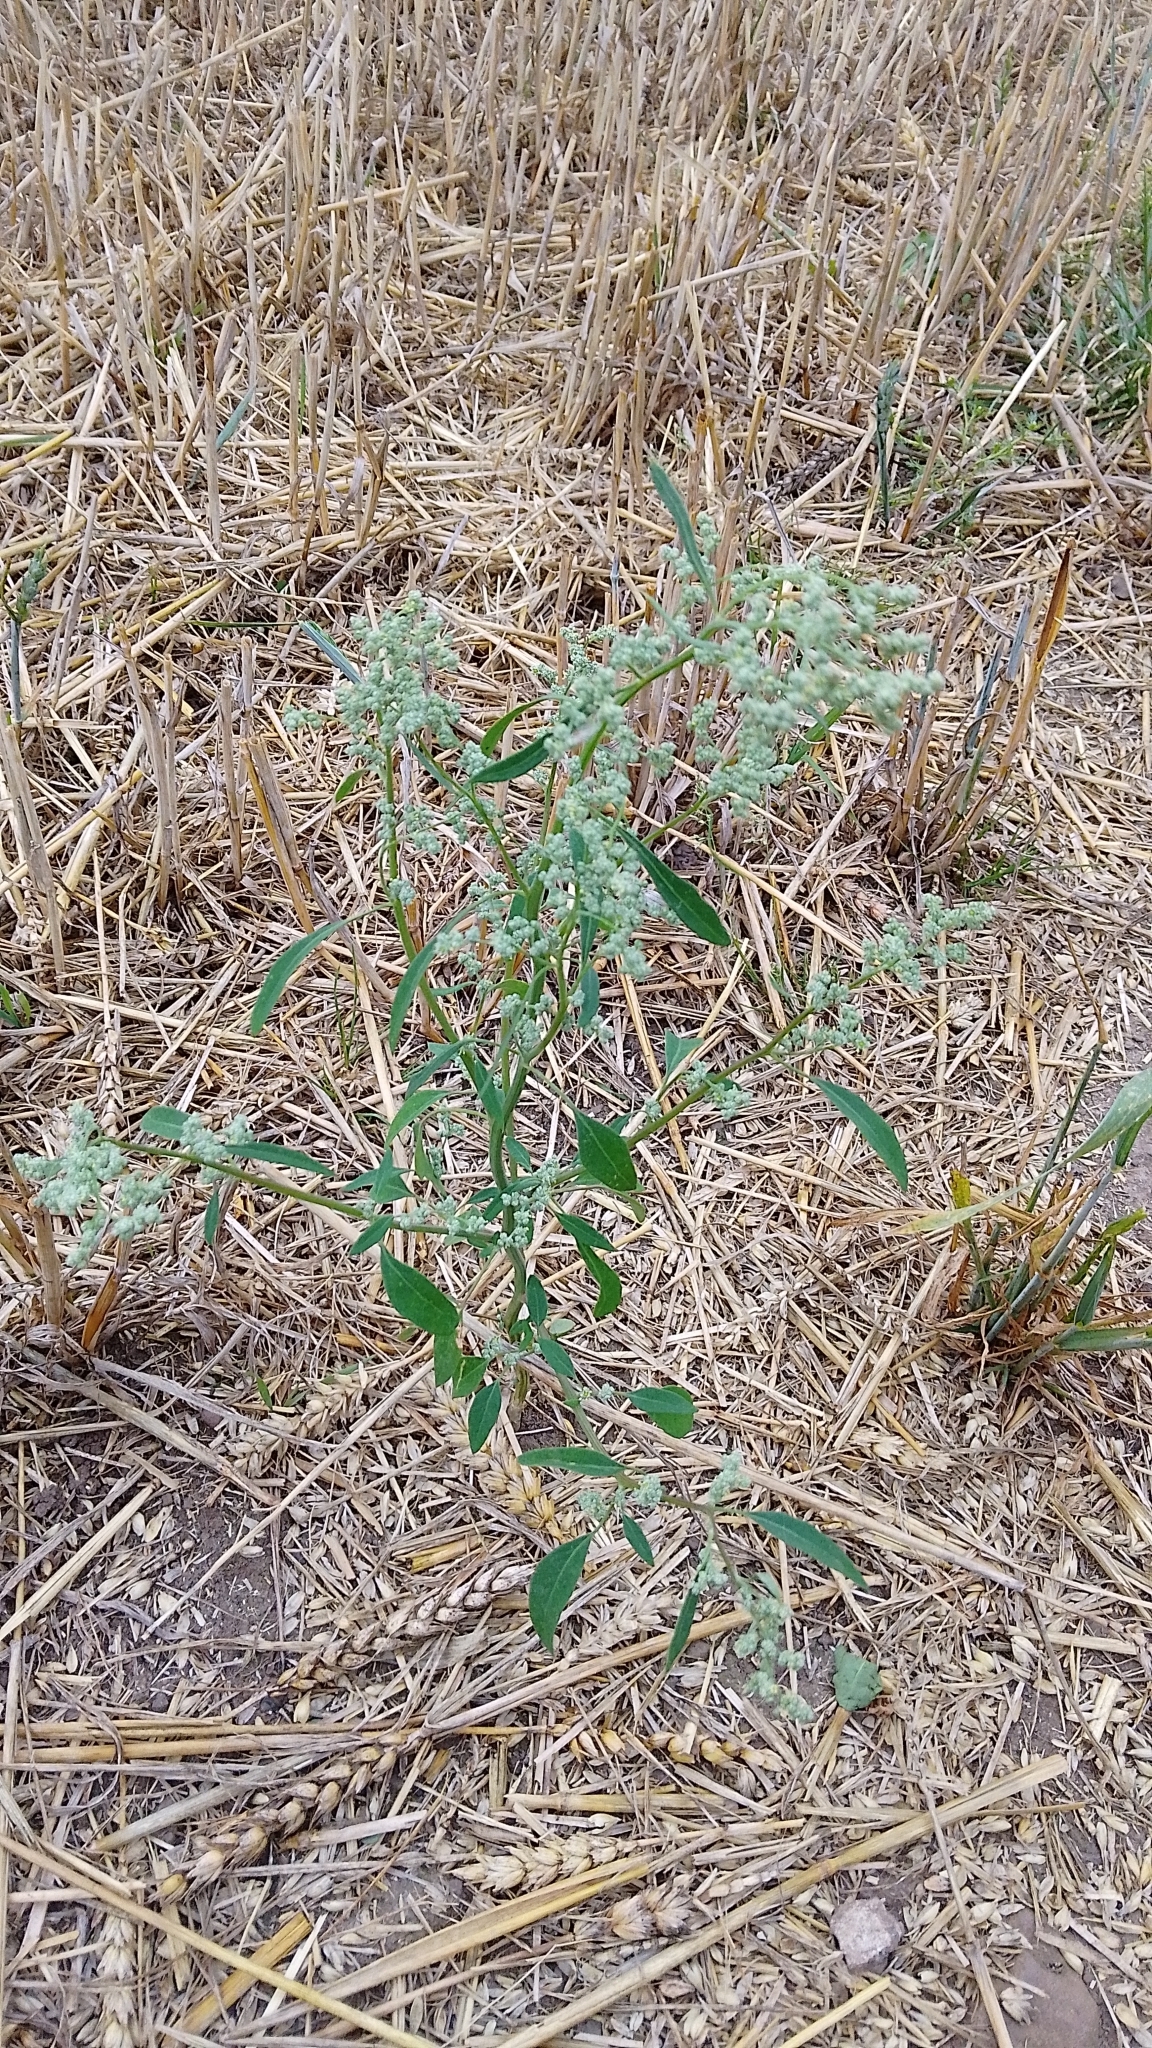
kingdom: Plantae
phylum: Tracheophyta
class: Magnoliopsida
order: Caryophyllales
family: Amaranthaceae
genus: Chenopodium
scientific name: Chenopodium album
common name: Fat-hen
